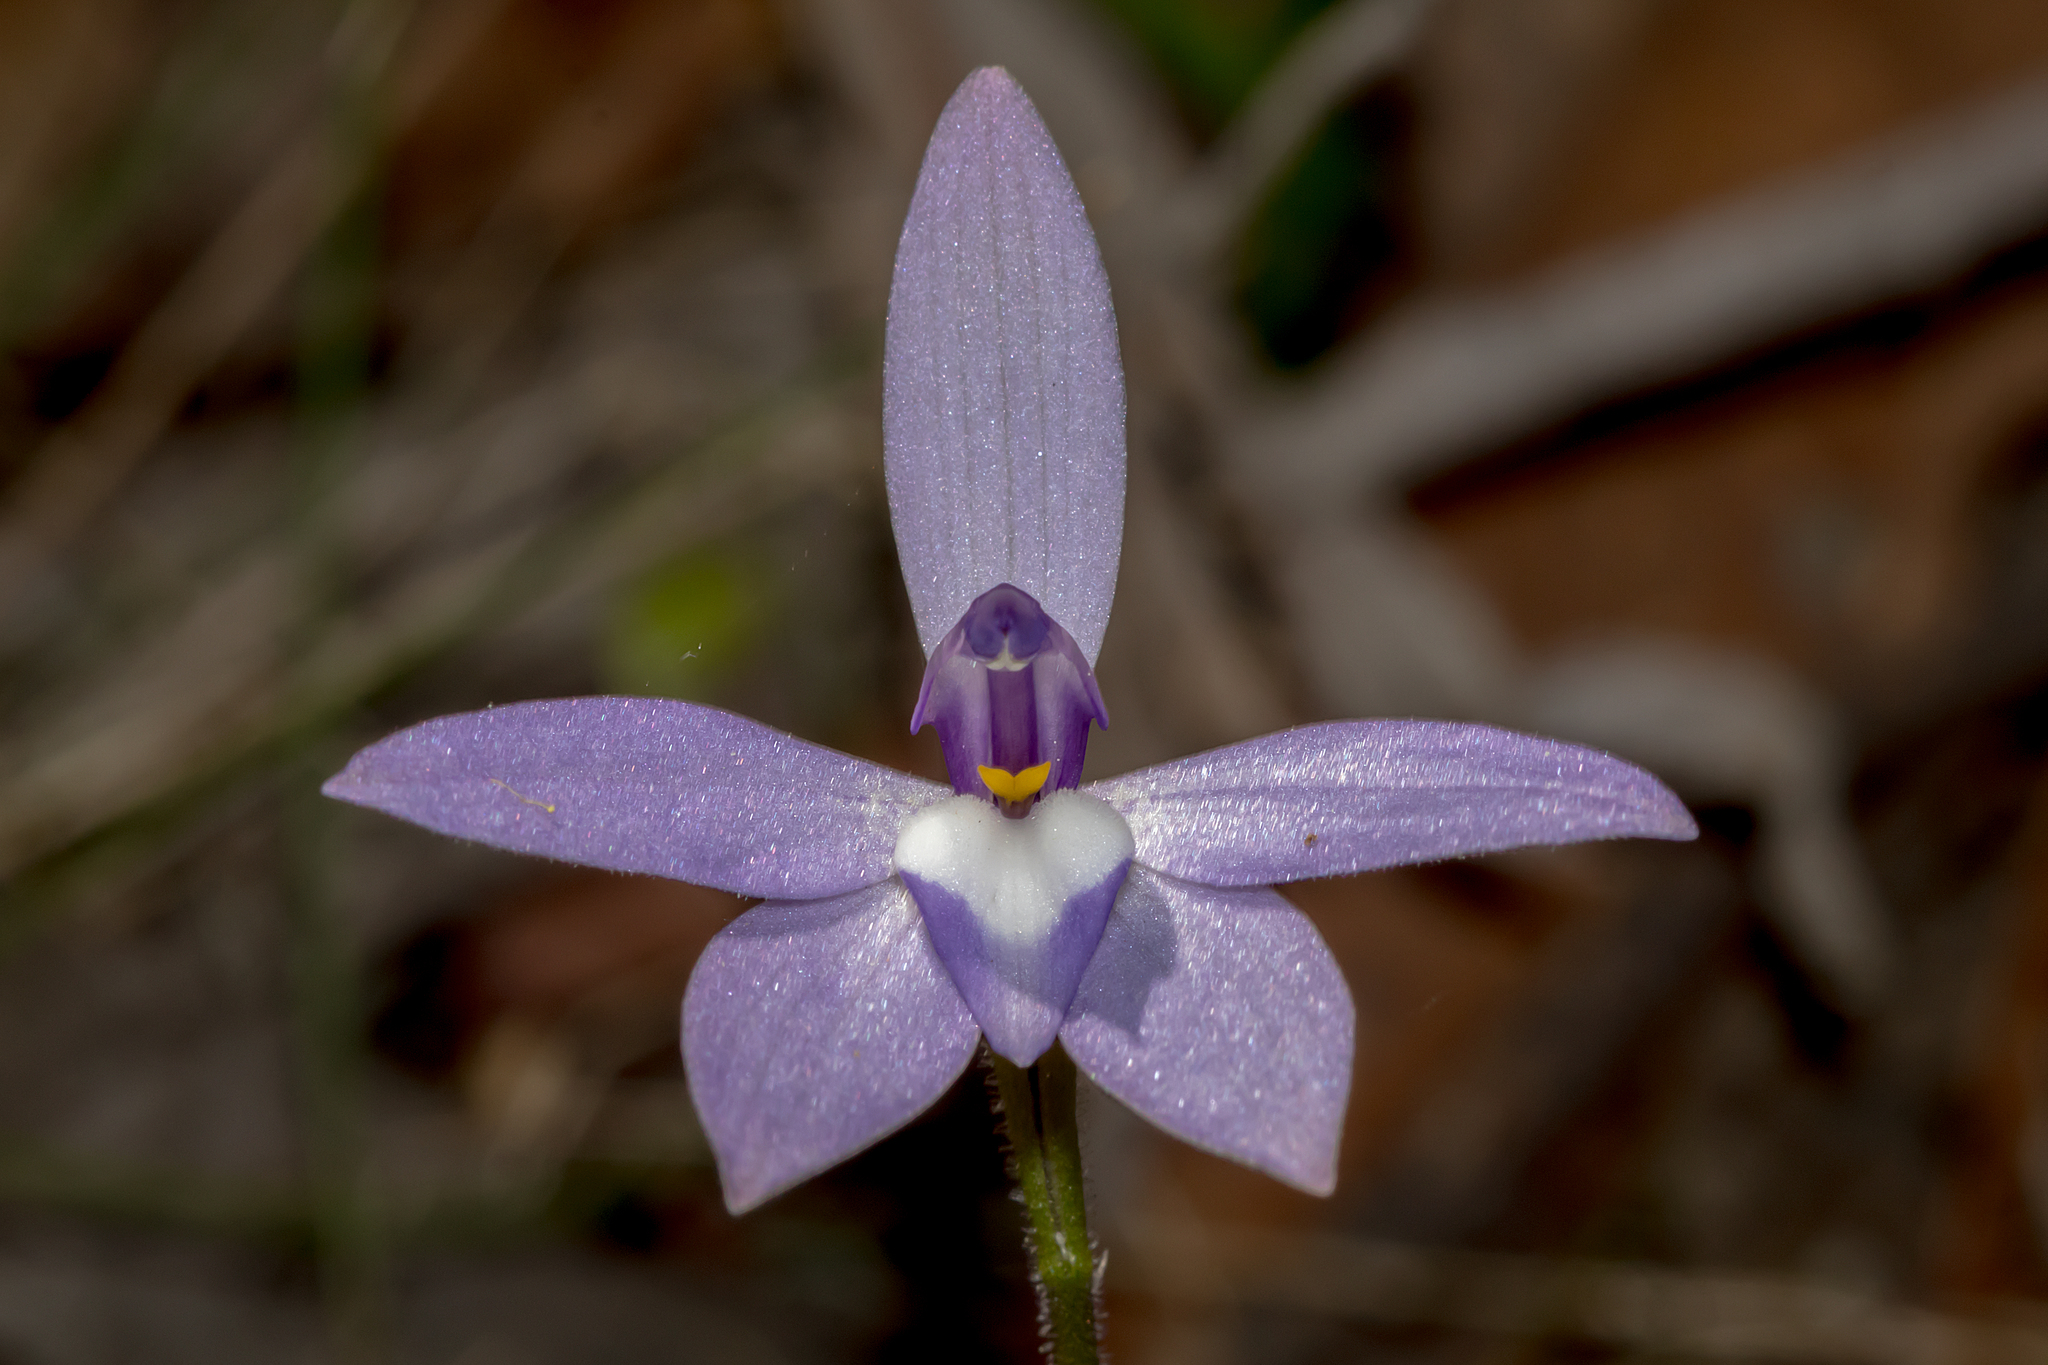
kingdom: Plantae
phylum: Tracheophyta
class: Liliopsida
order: Asparagales
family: Orchidaceae
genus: Caladenia
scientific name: Caladenia major
